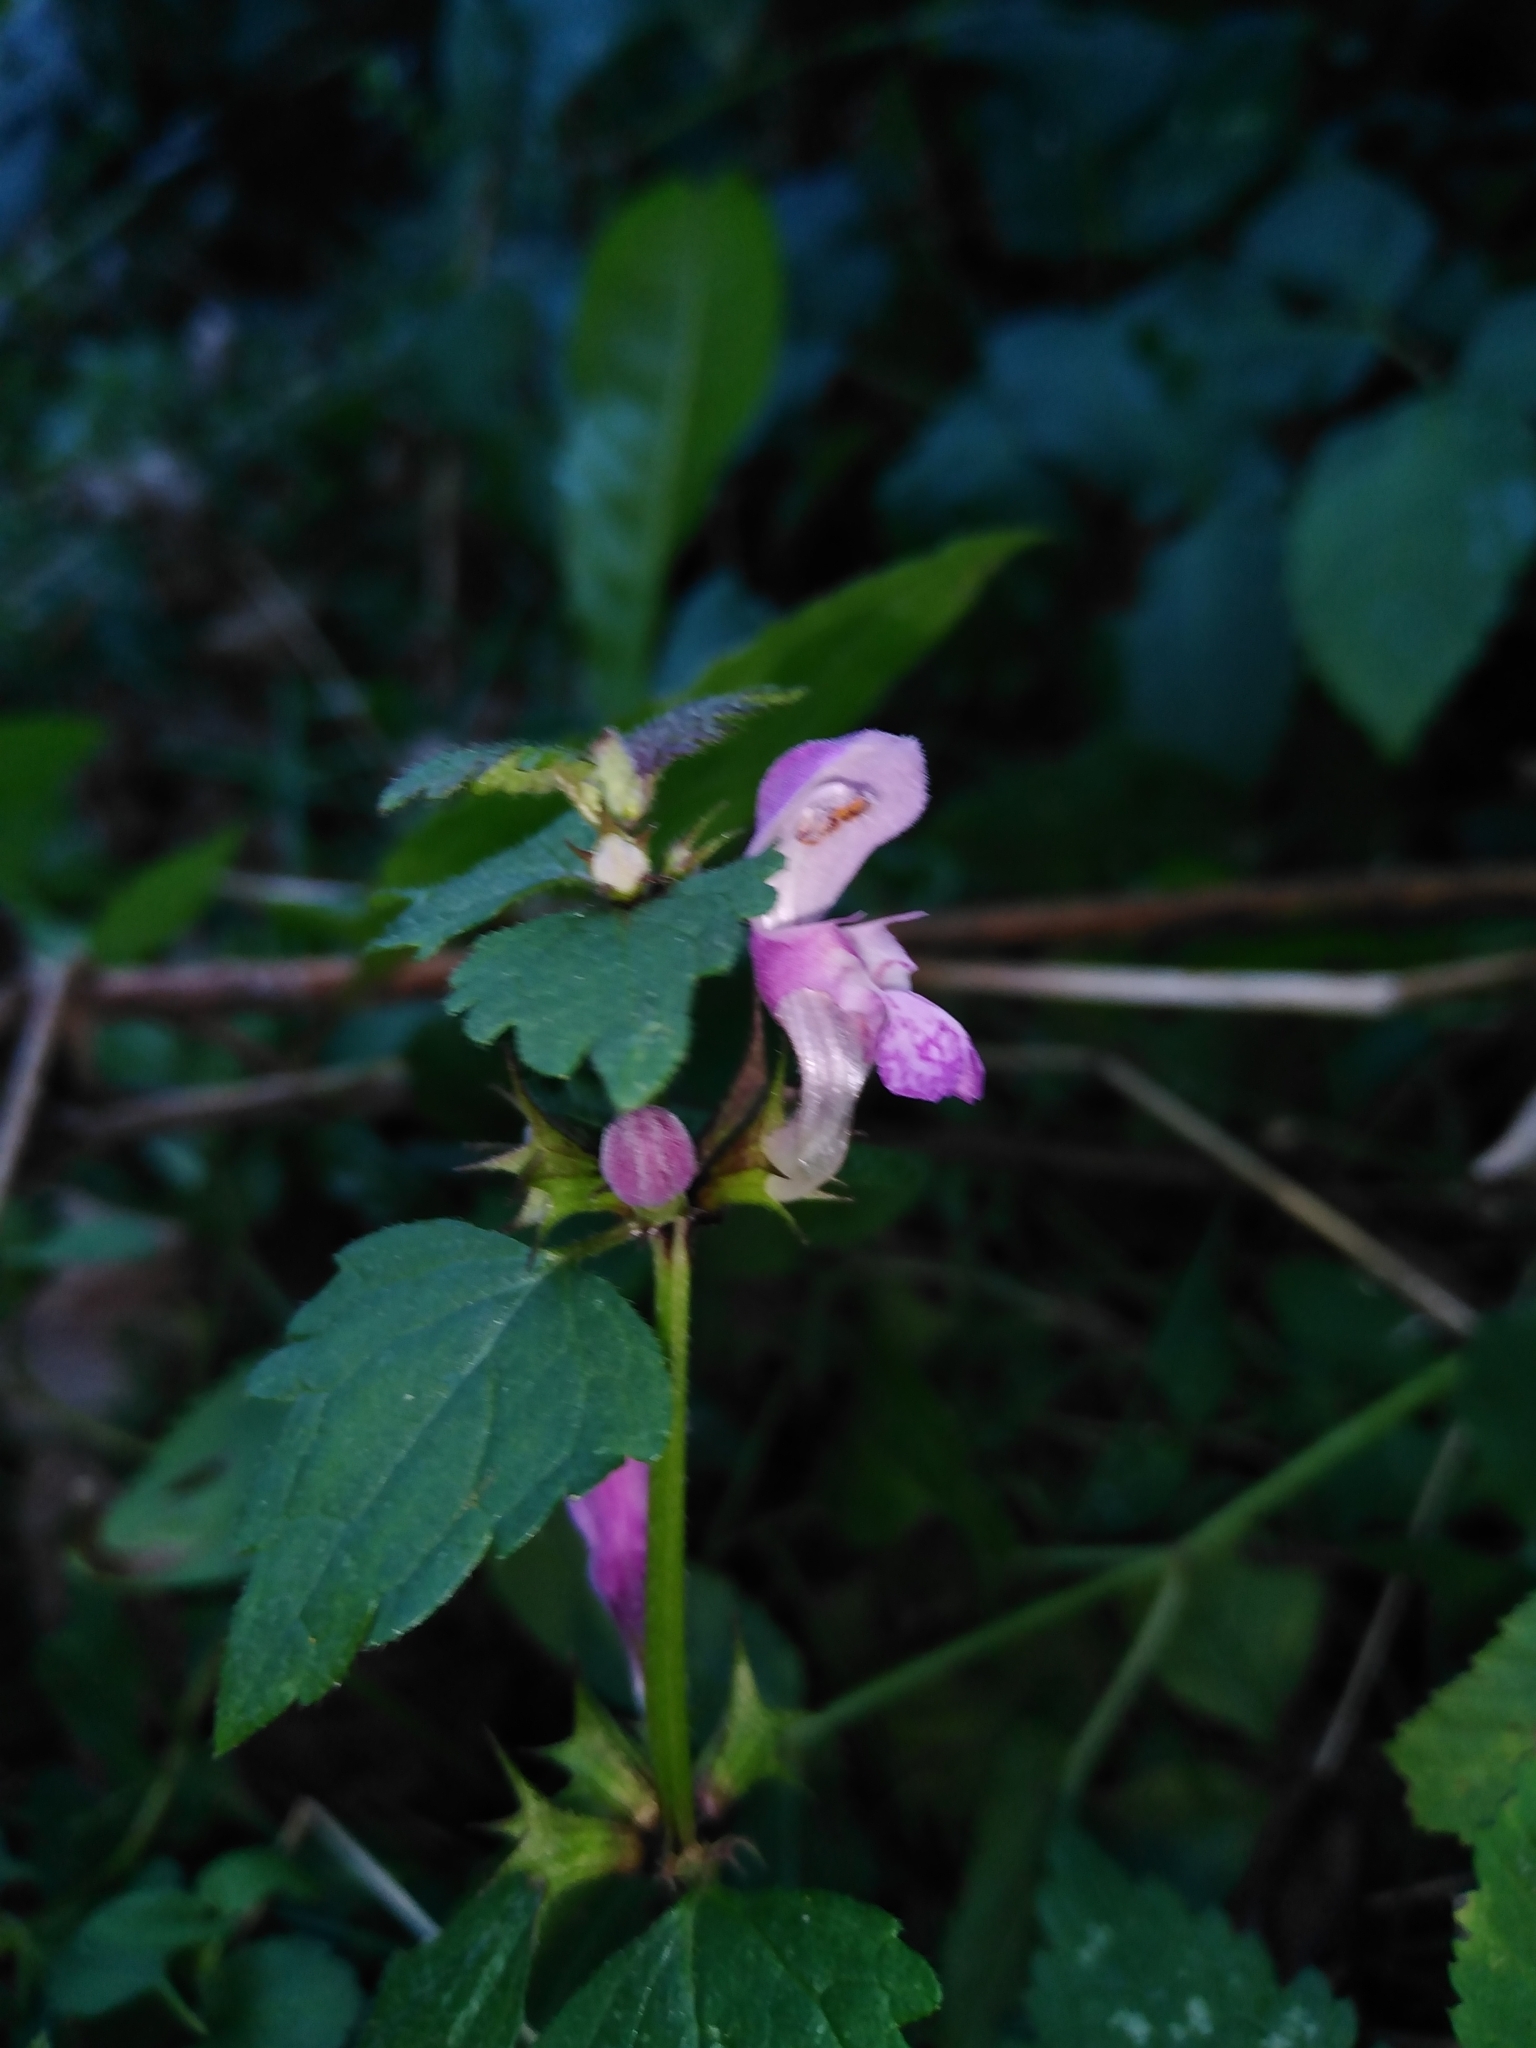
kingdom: Plantae
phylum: Tracheophyta
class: Magnoliopsida
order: Lamiales
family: Lamiaceae
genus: Lamium
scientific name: Lamium maculatum
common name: Spotted dead-nettle
